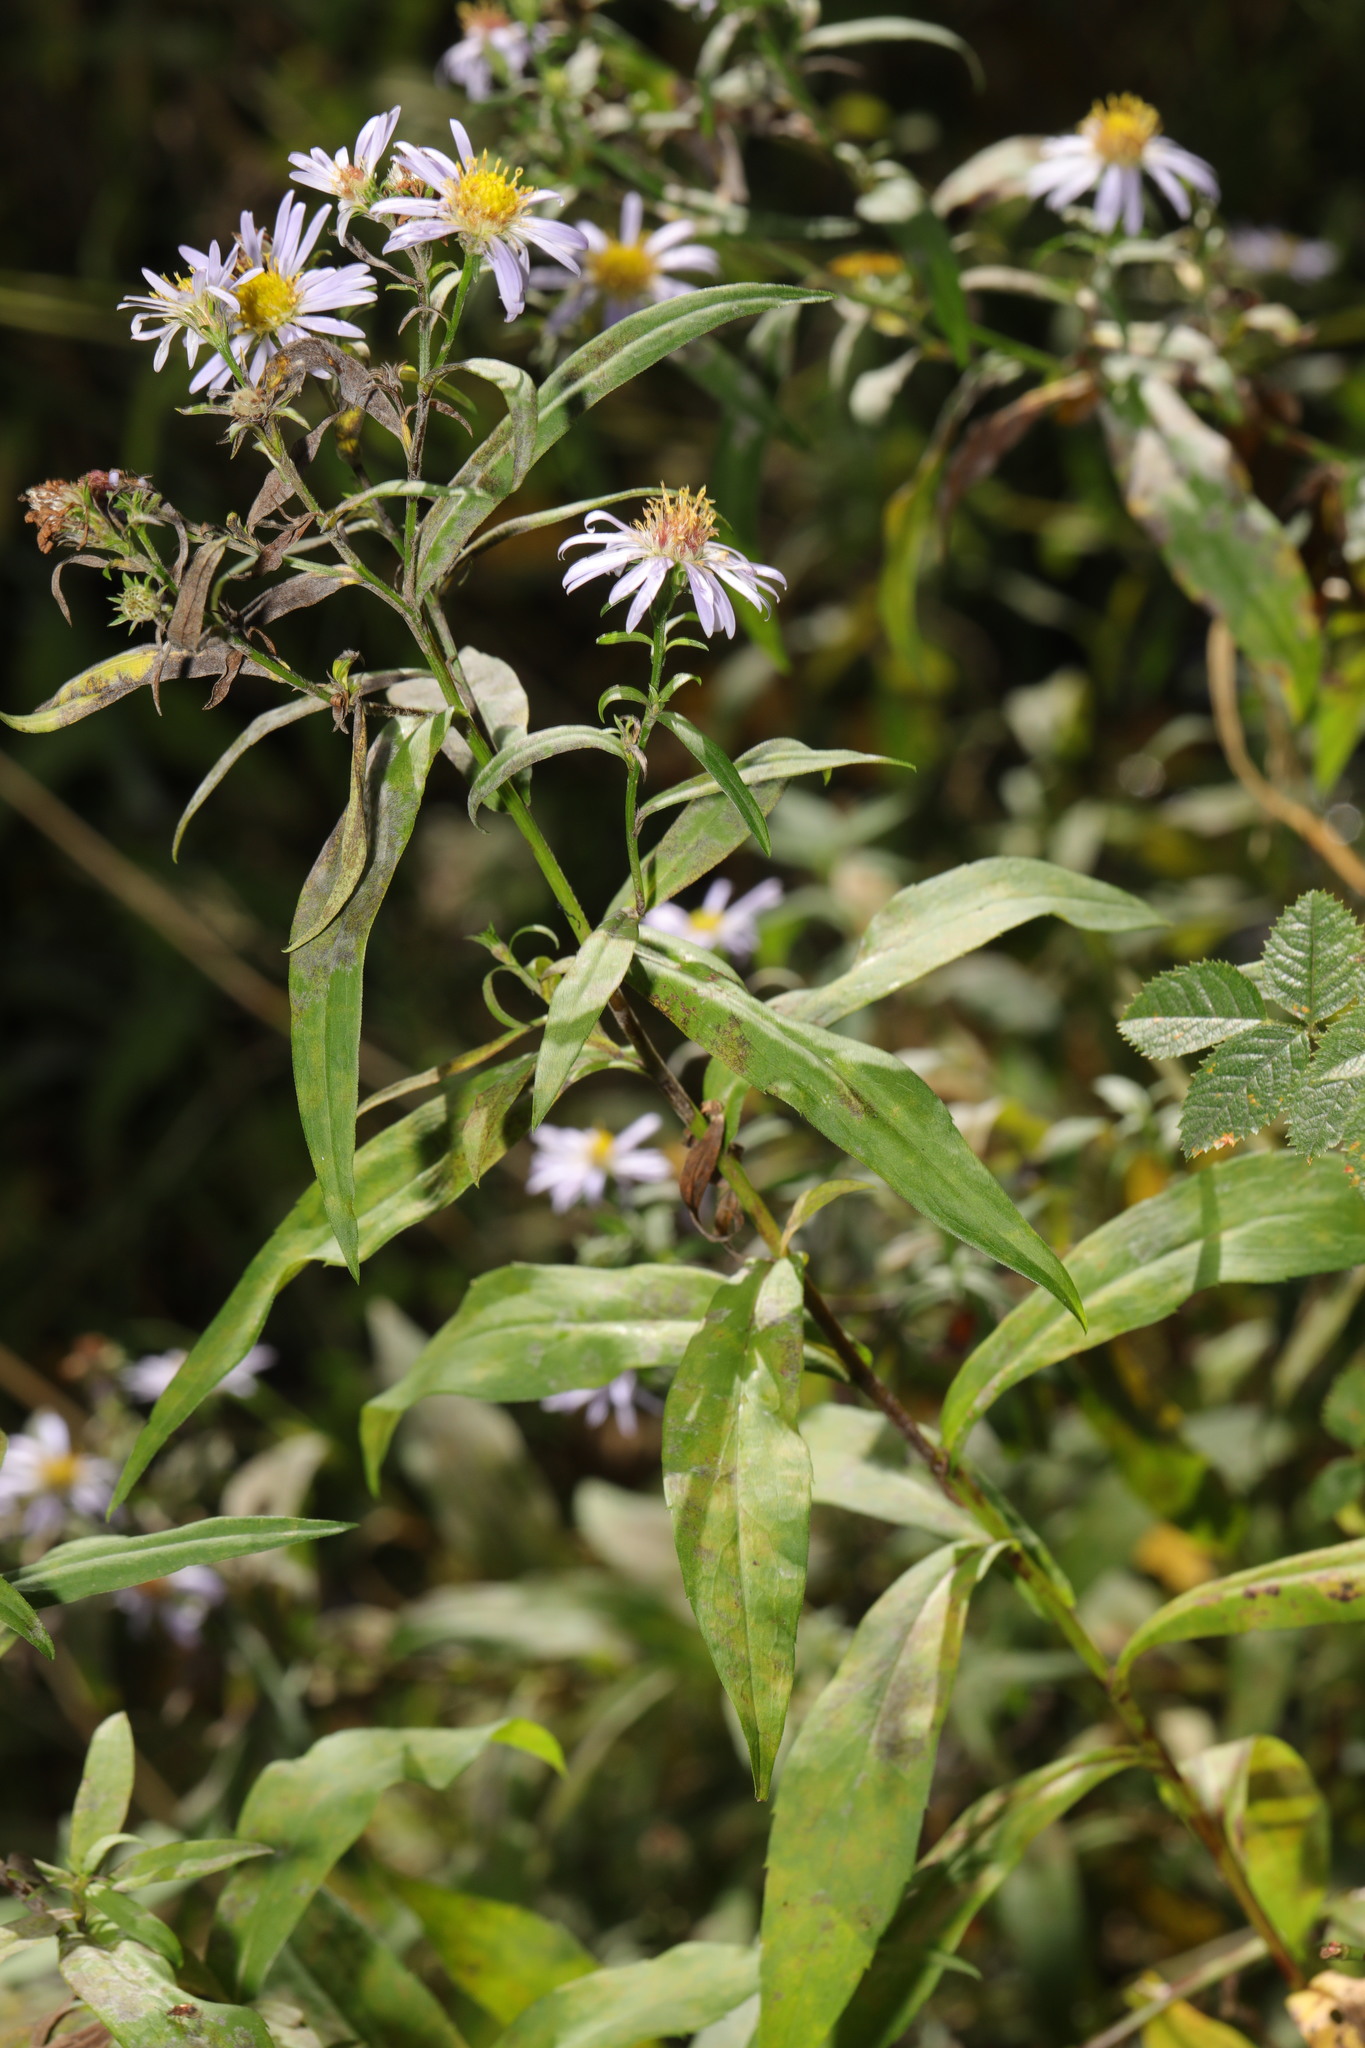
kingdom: Plantae
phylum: Tracheophyta
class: Magnoliopsida
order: Asterales
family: Asteraceae
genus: Symphyotrichum
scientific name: Symphyotrichum
